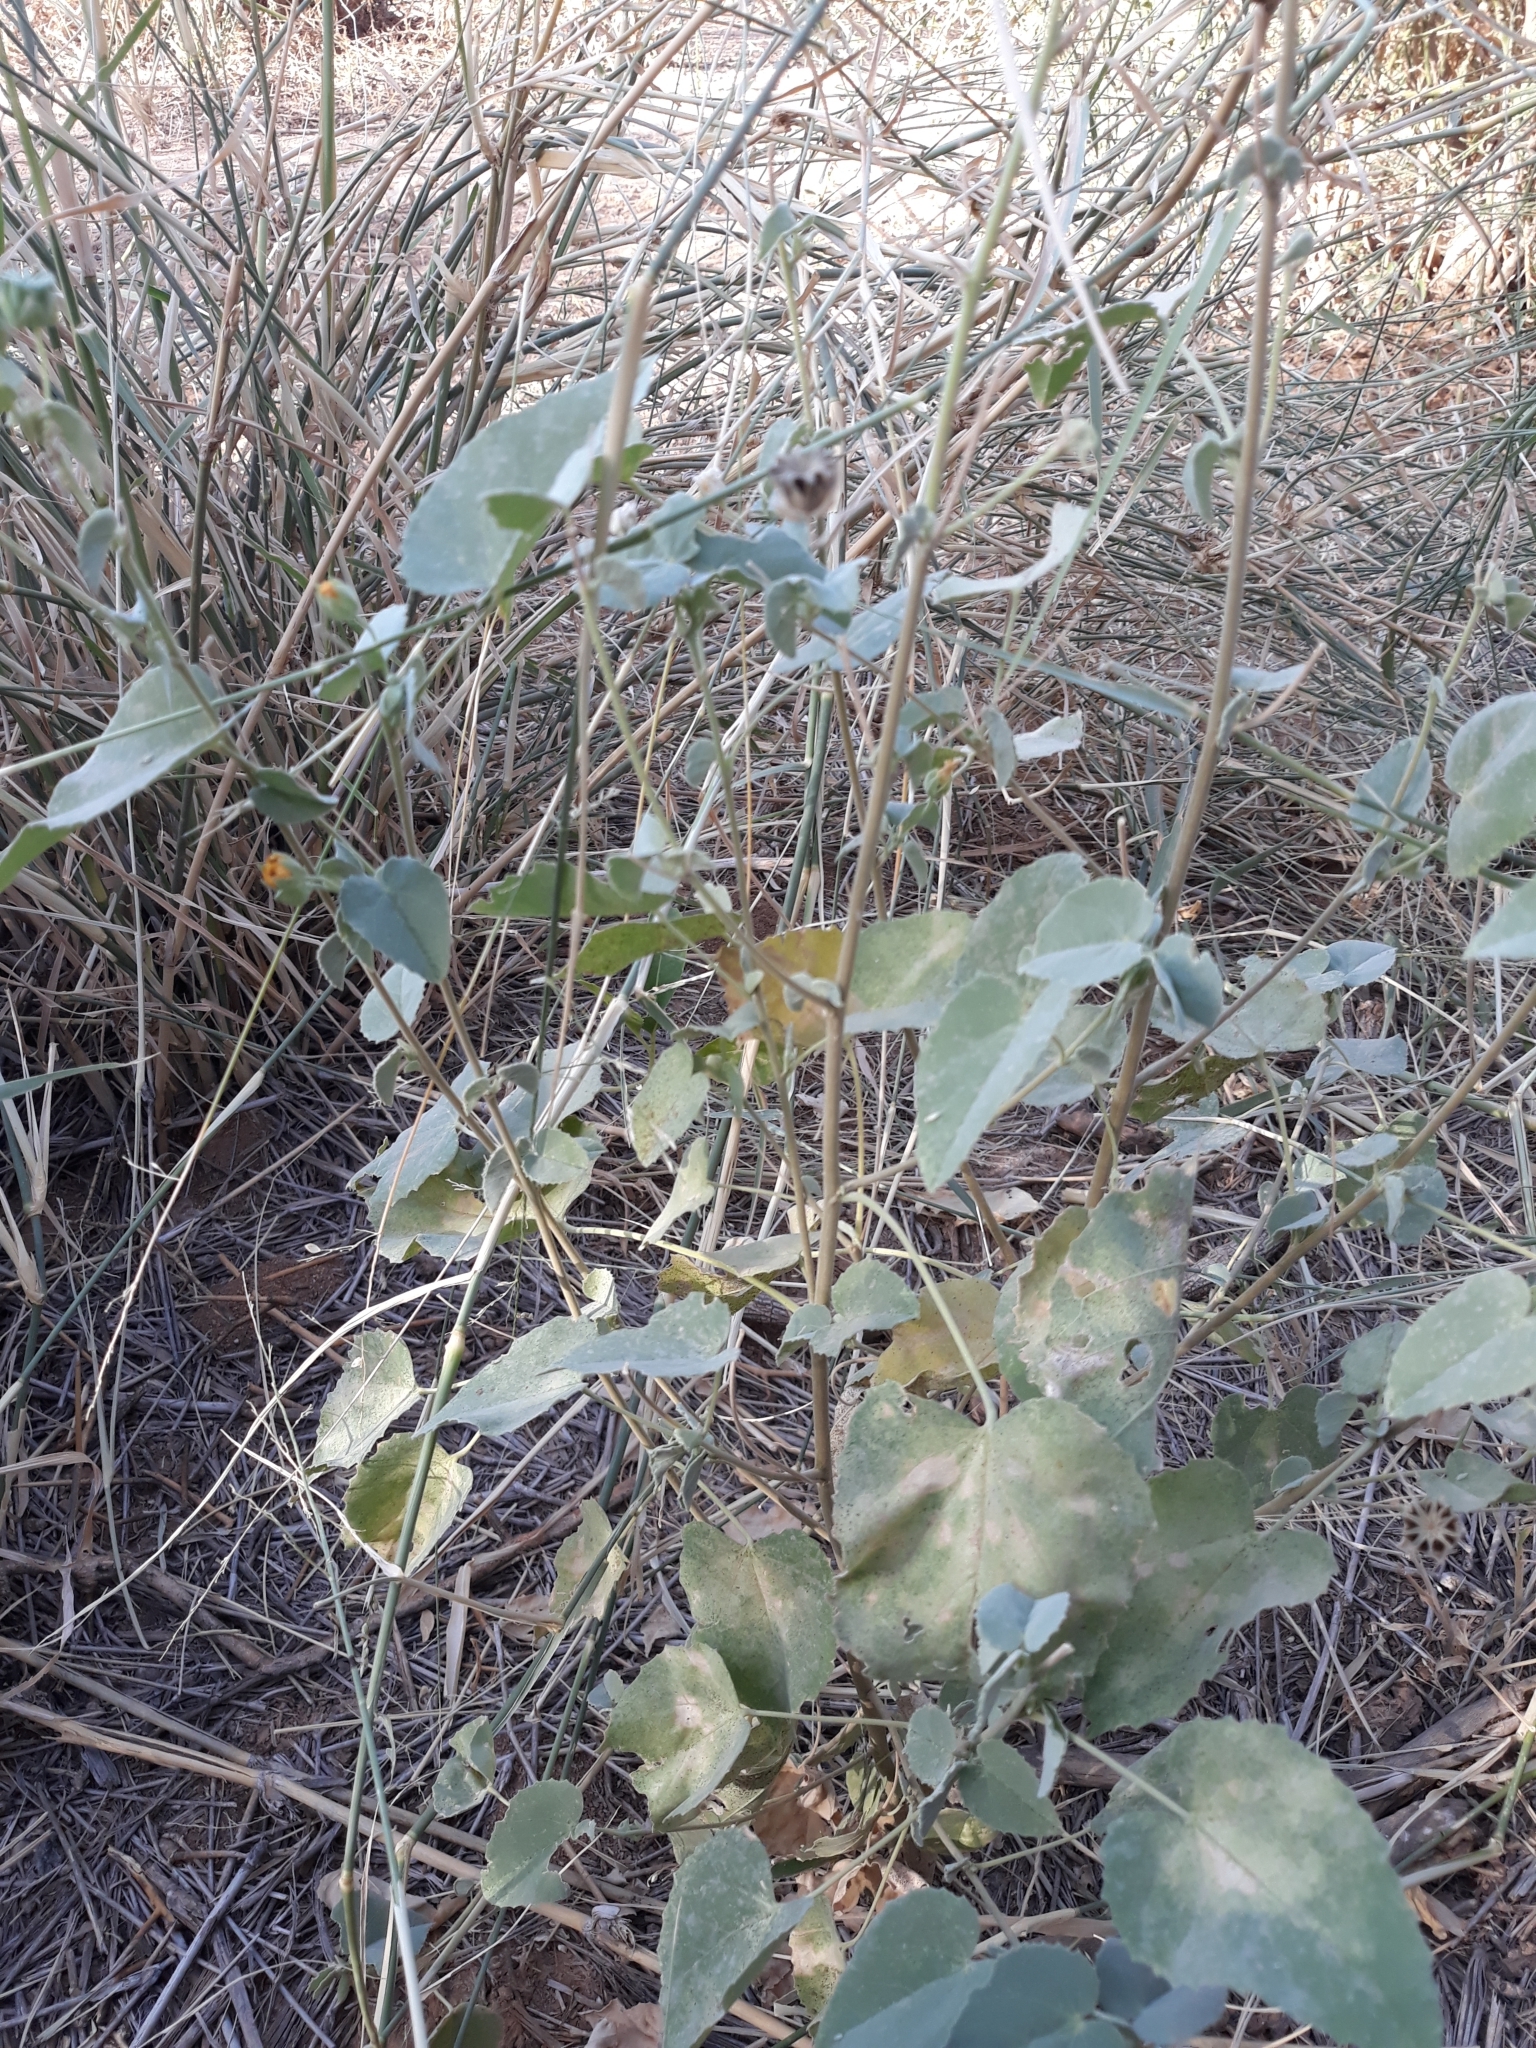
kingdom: Plantae
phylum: Tracheophyta
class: Magnoliopsida
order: Malvales
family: Malvaceae
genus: Abutilon
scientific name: Abutilon fruticosum
